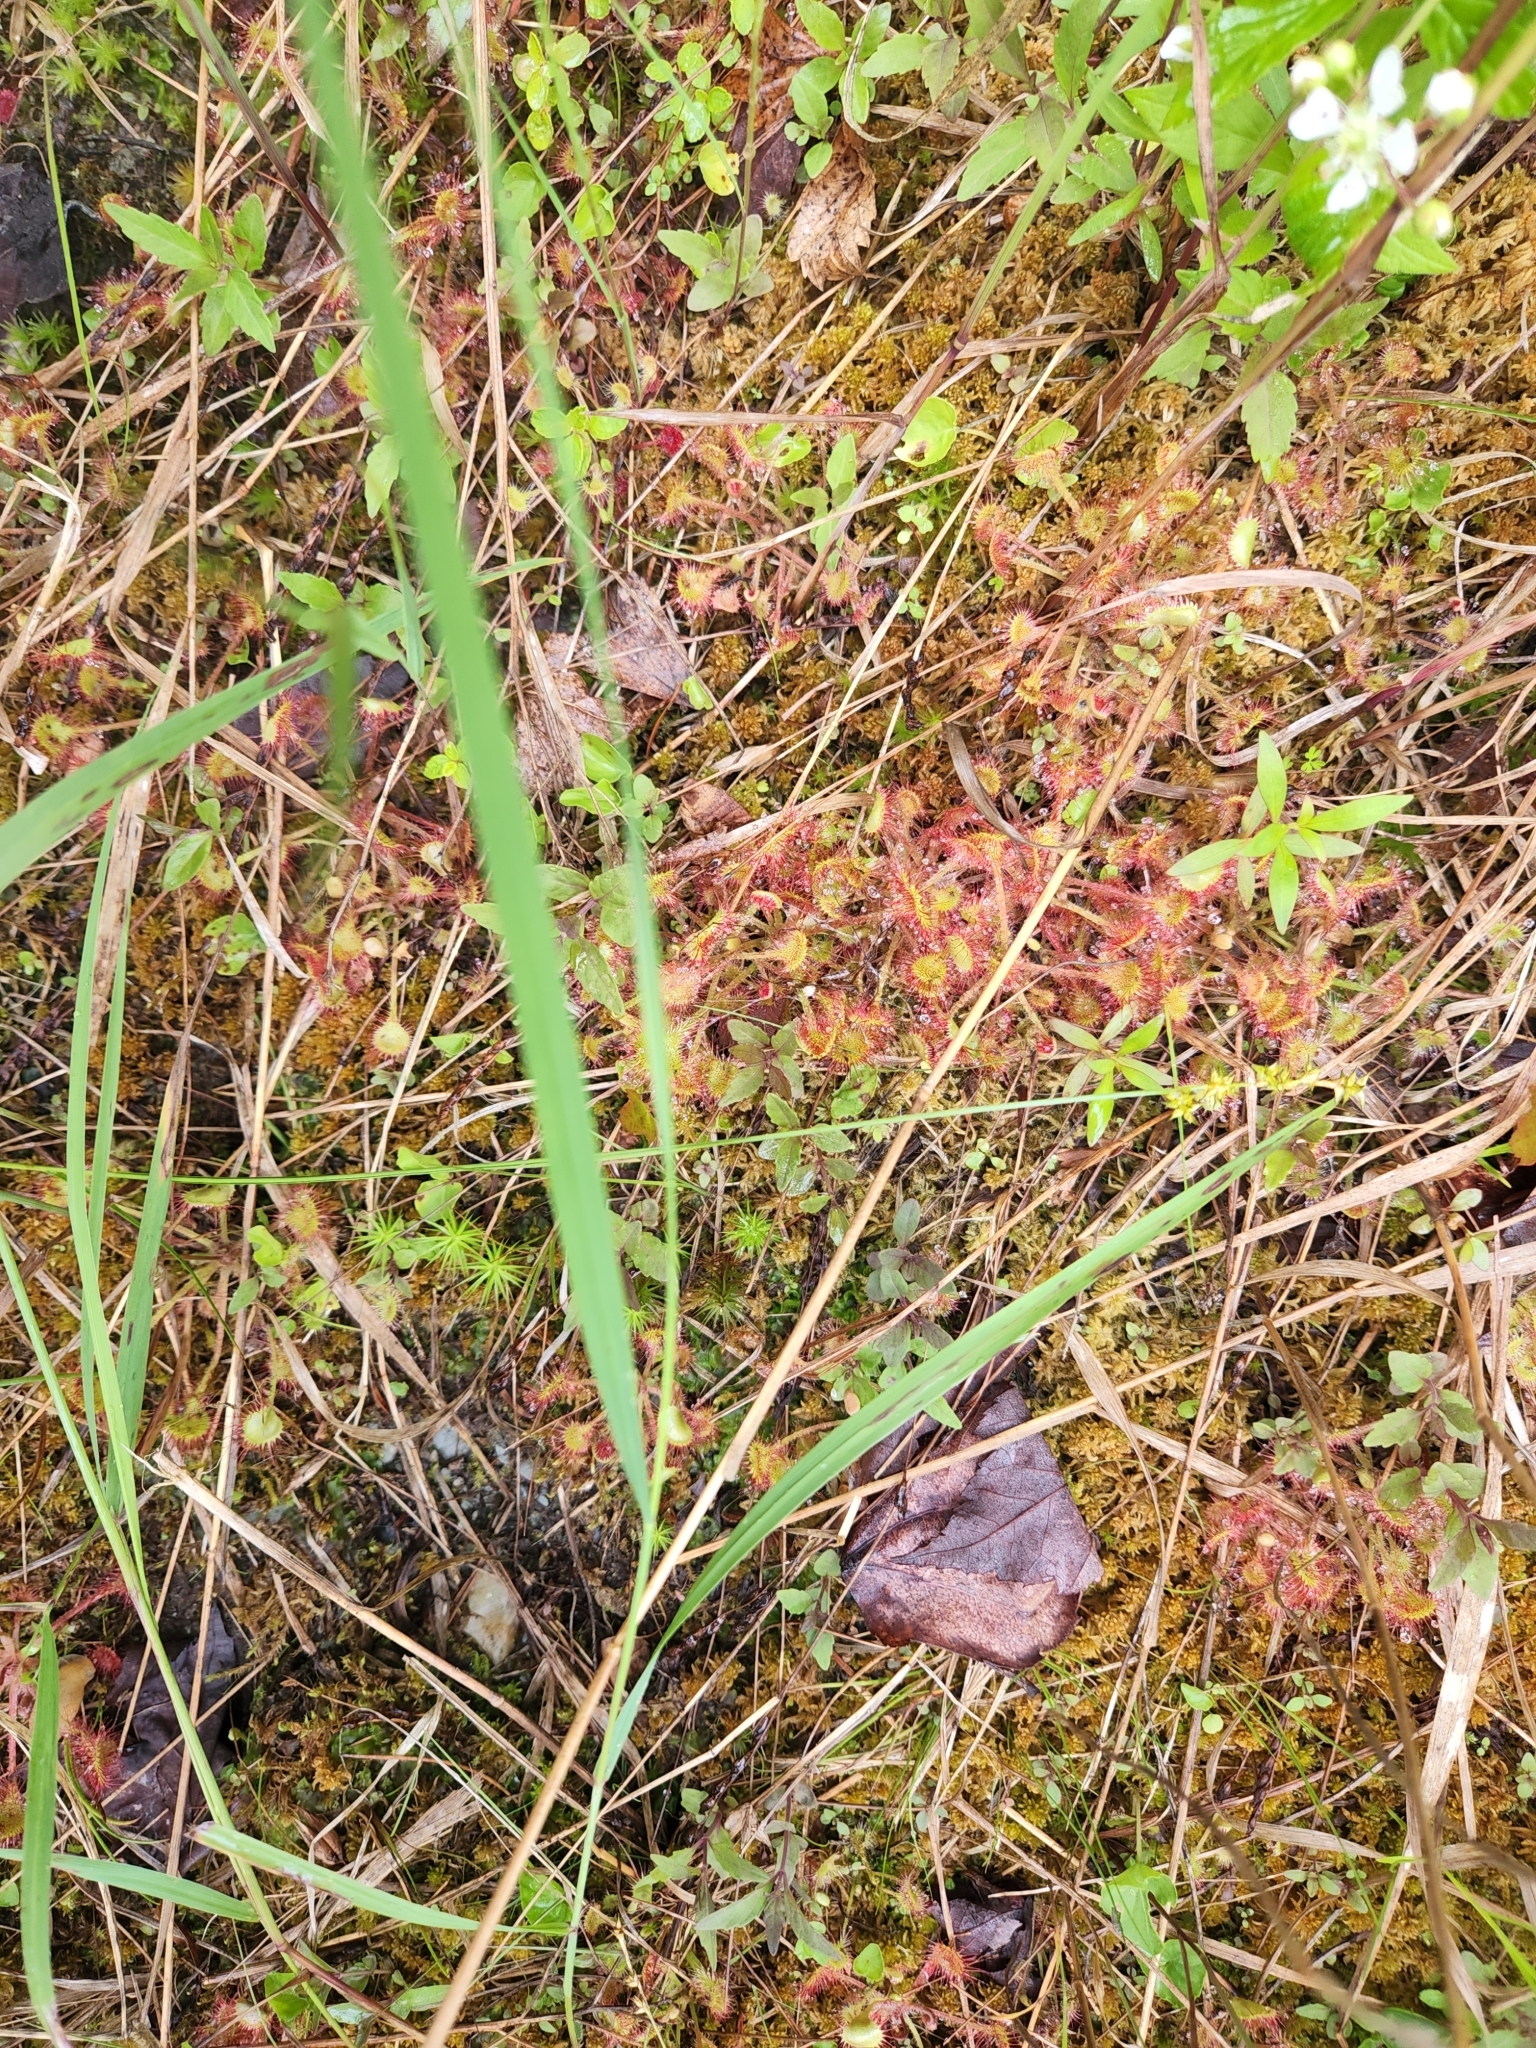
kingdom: Plantae
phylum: Tracheophyta
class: Magnoliopsida
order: Caryophyllales
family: Droseraceae
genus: Drosera
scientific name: Drosera rotundifolia
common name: Round-leaved sundew
